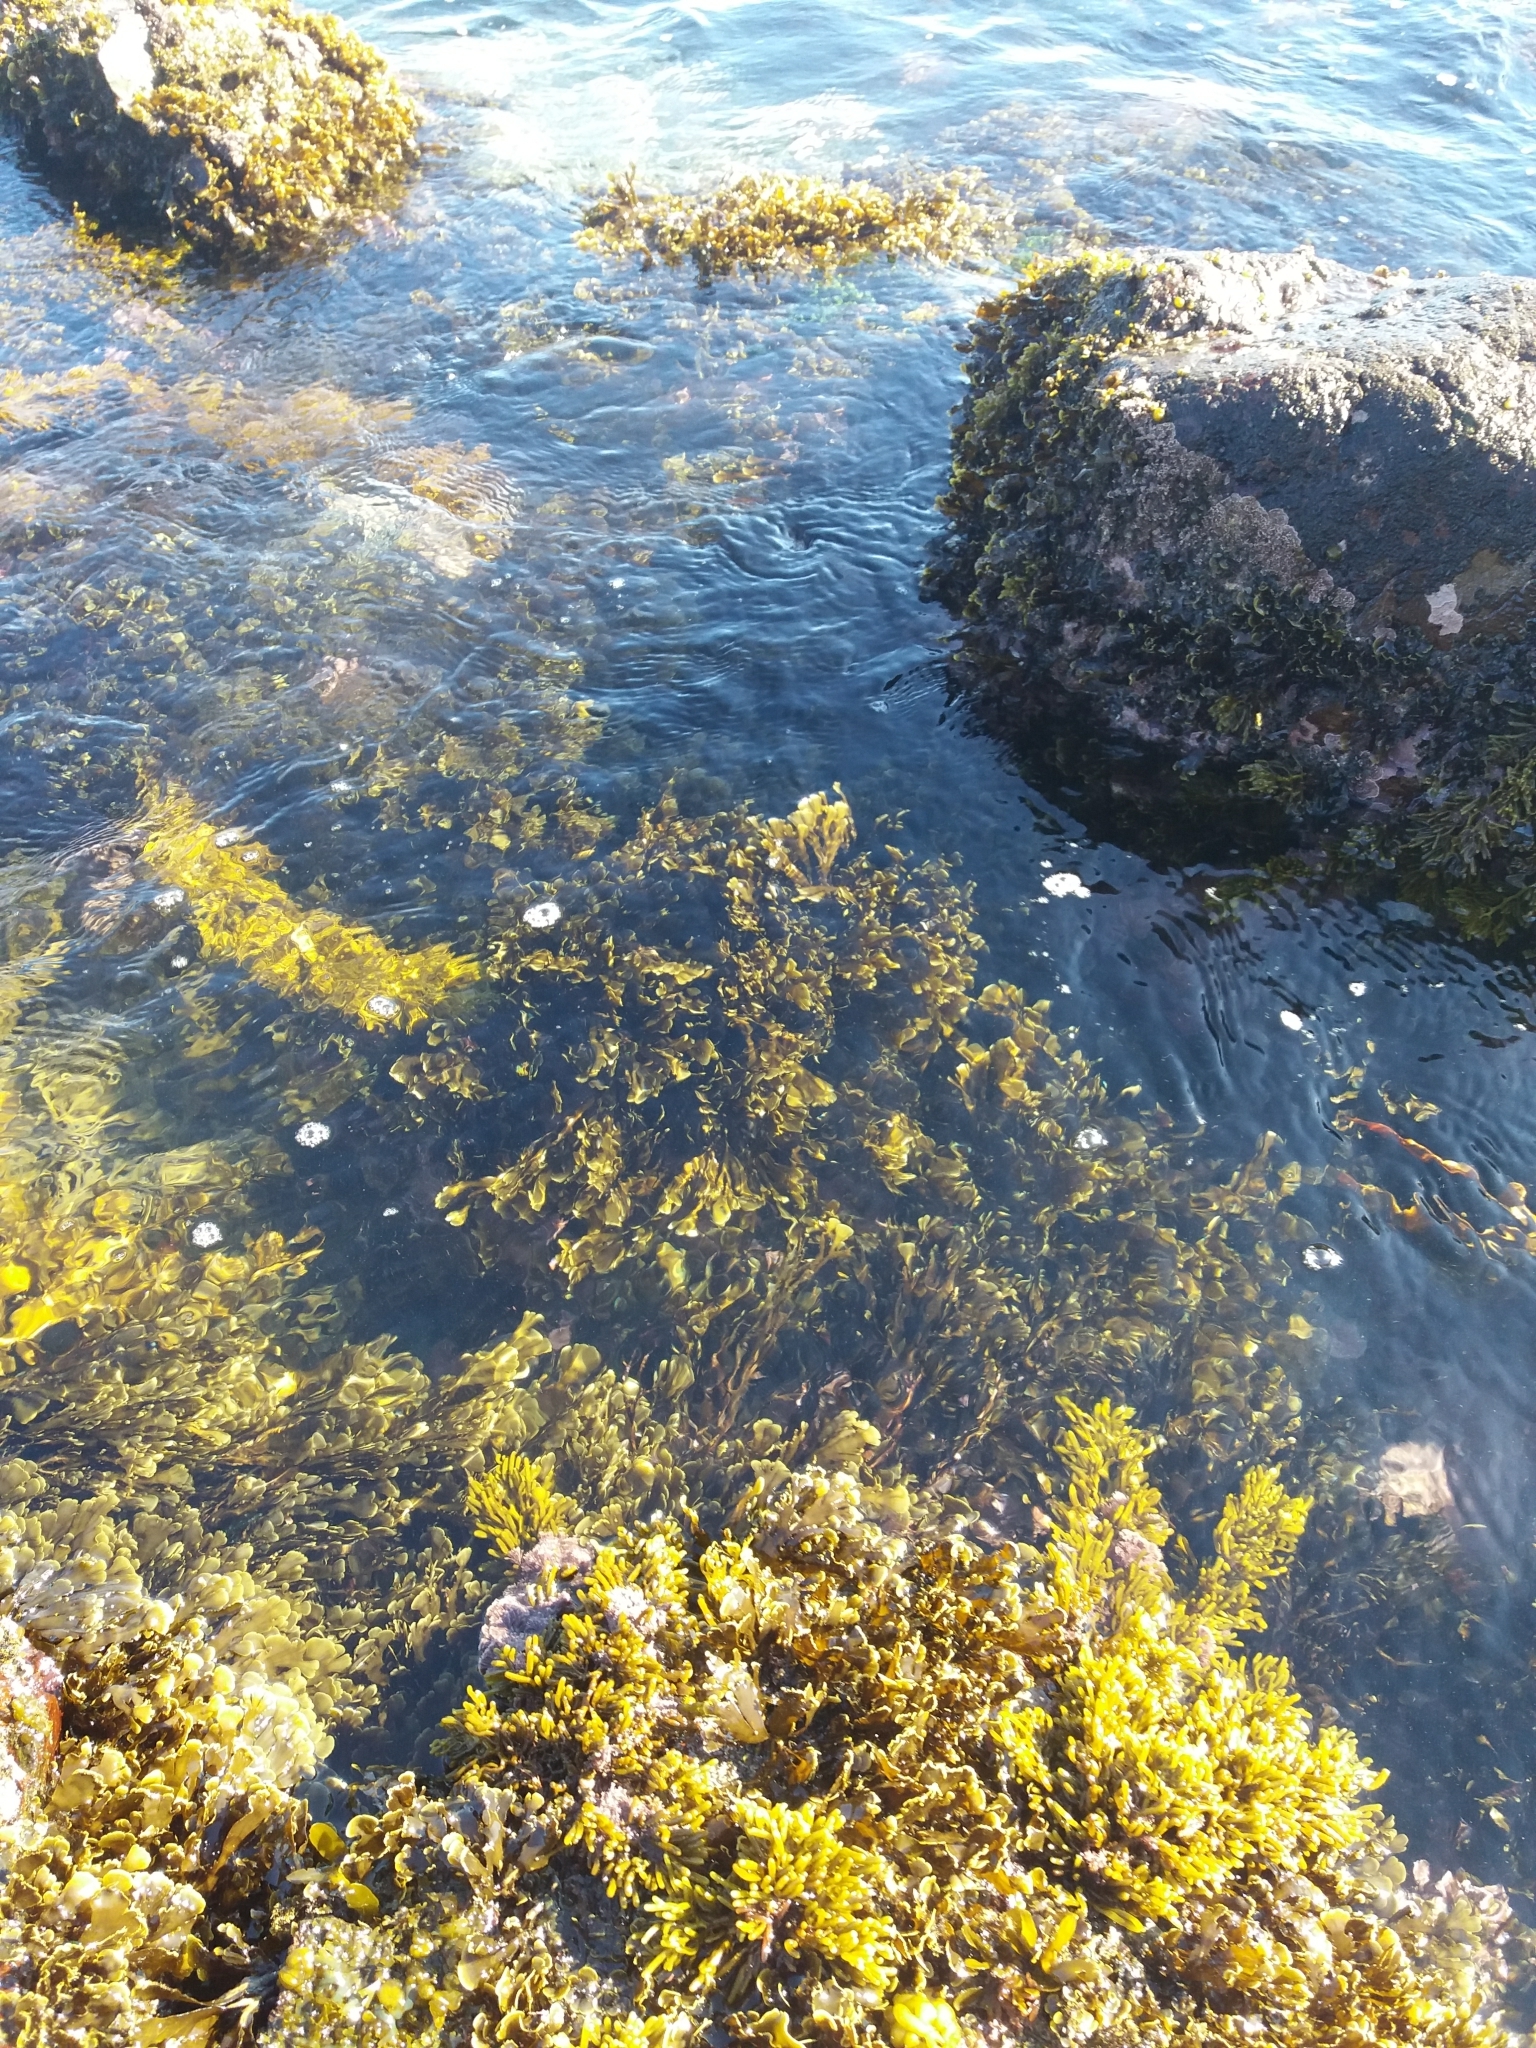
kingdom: Chromista
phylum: Ochrophyta
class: Phaeophyceae
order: Dictyotales
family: Dictyotaceae
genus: Zonaria
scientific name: Zonaria turneriana
